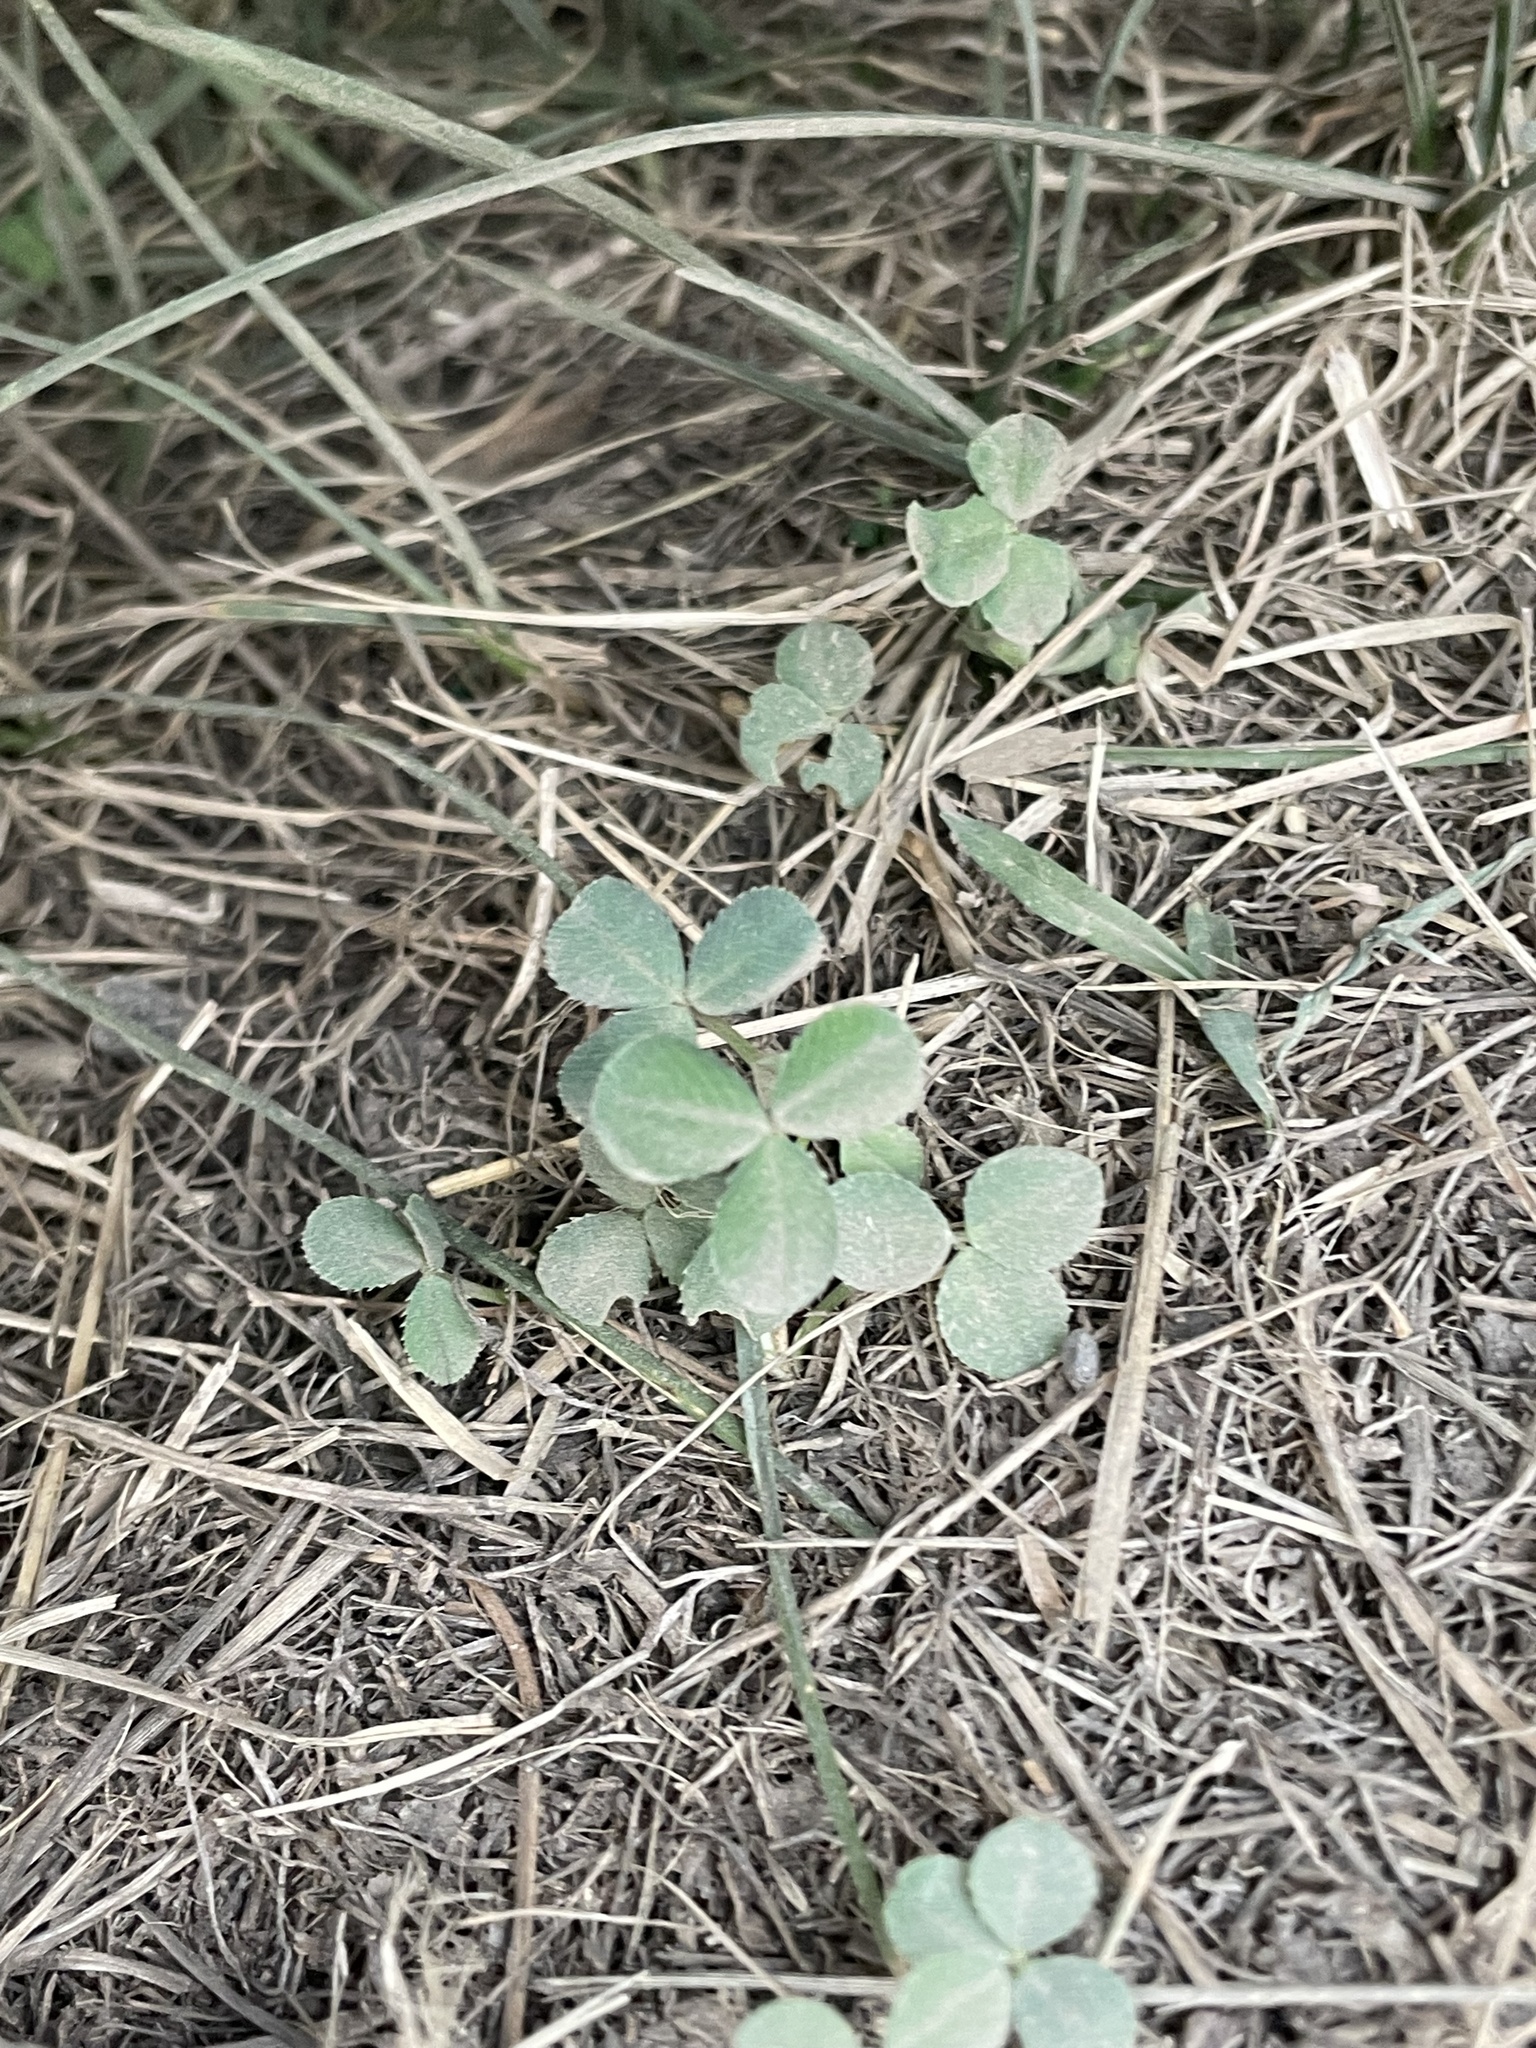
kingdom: Plantae
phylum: Tracheophyta
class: Magnoliopsida
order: Fabales
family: Fabaceae
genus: Trifolium
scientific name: Trifolium repens
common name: White clover
